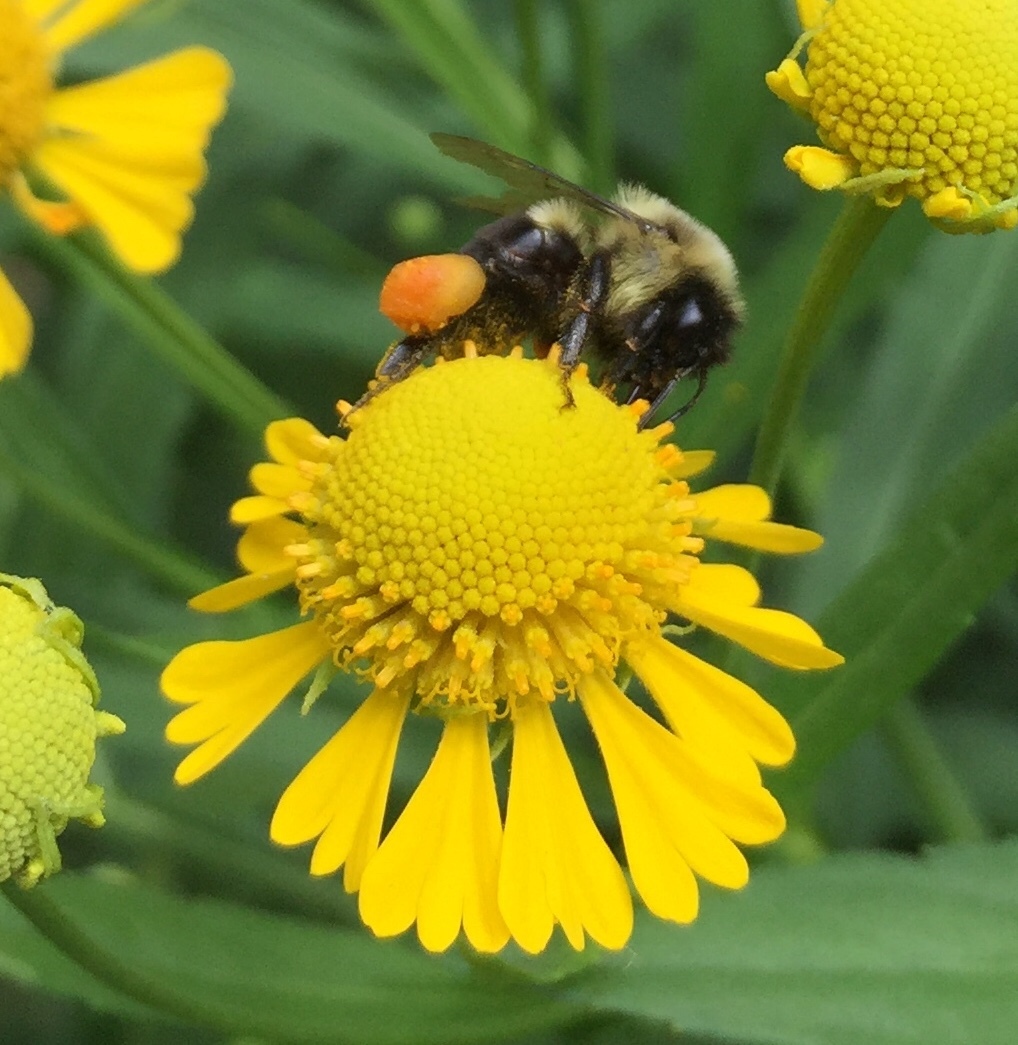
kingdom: Animalia
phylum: Arthropoda
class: Insecta
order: Hymenoptera
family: Apidae
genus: Bombus
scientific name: Bombus impatiens
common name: Common eastern bumble bee
